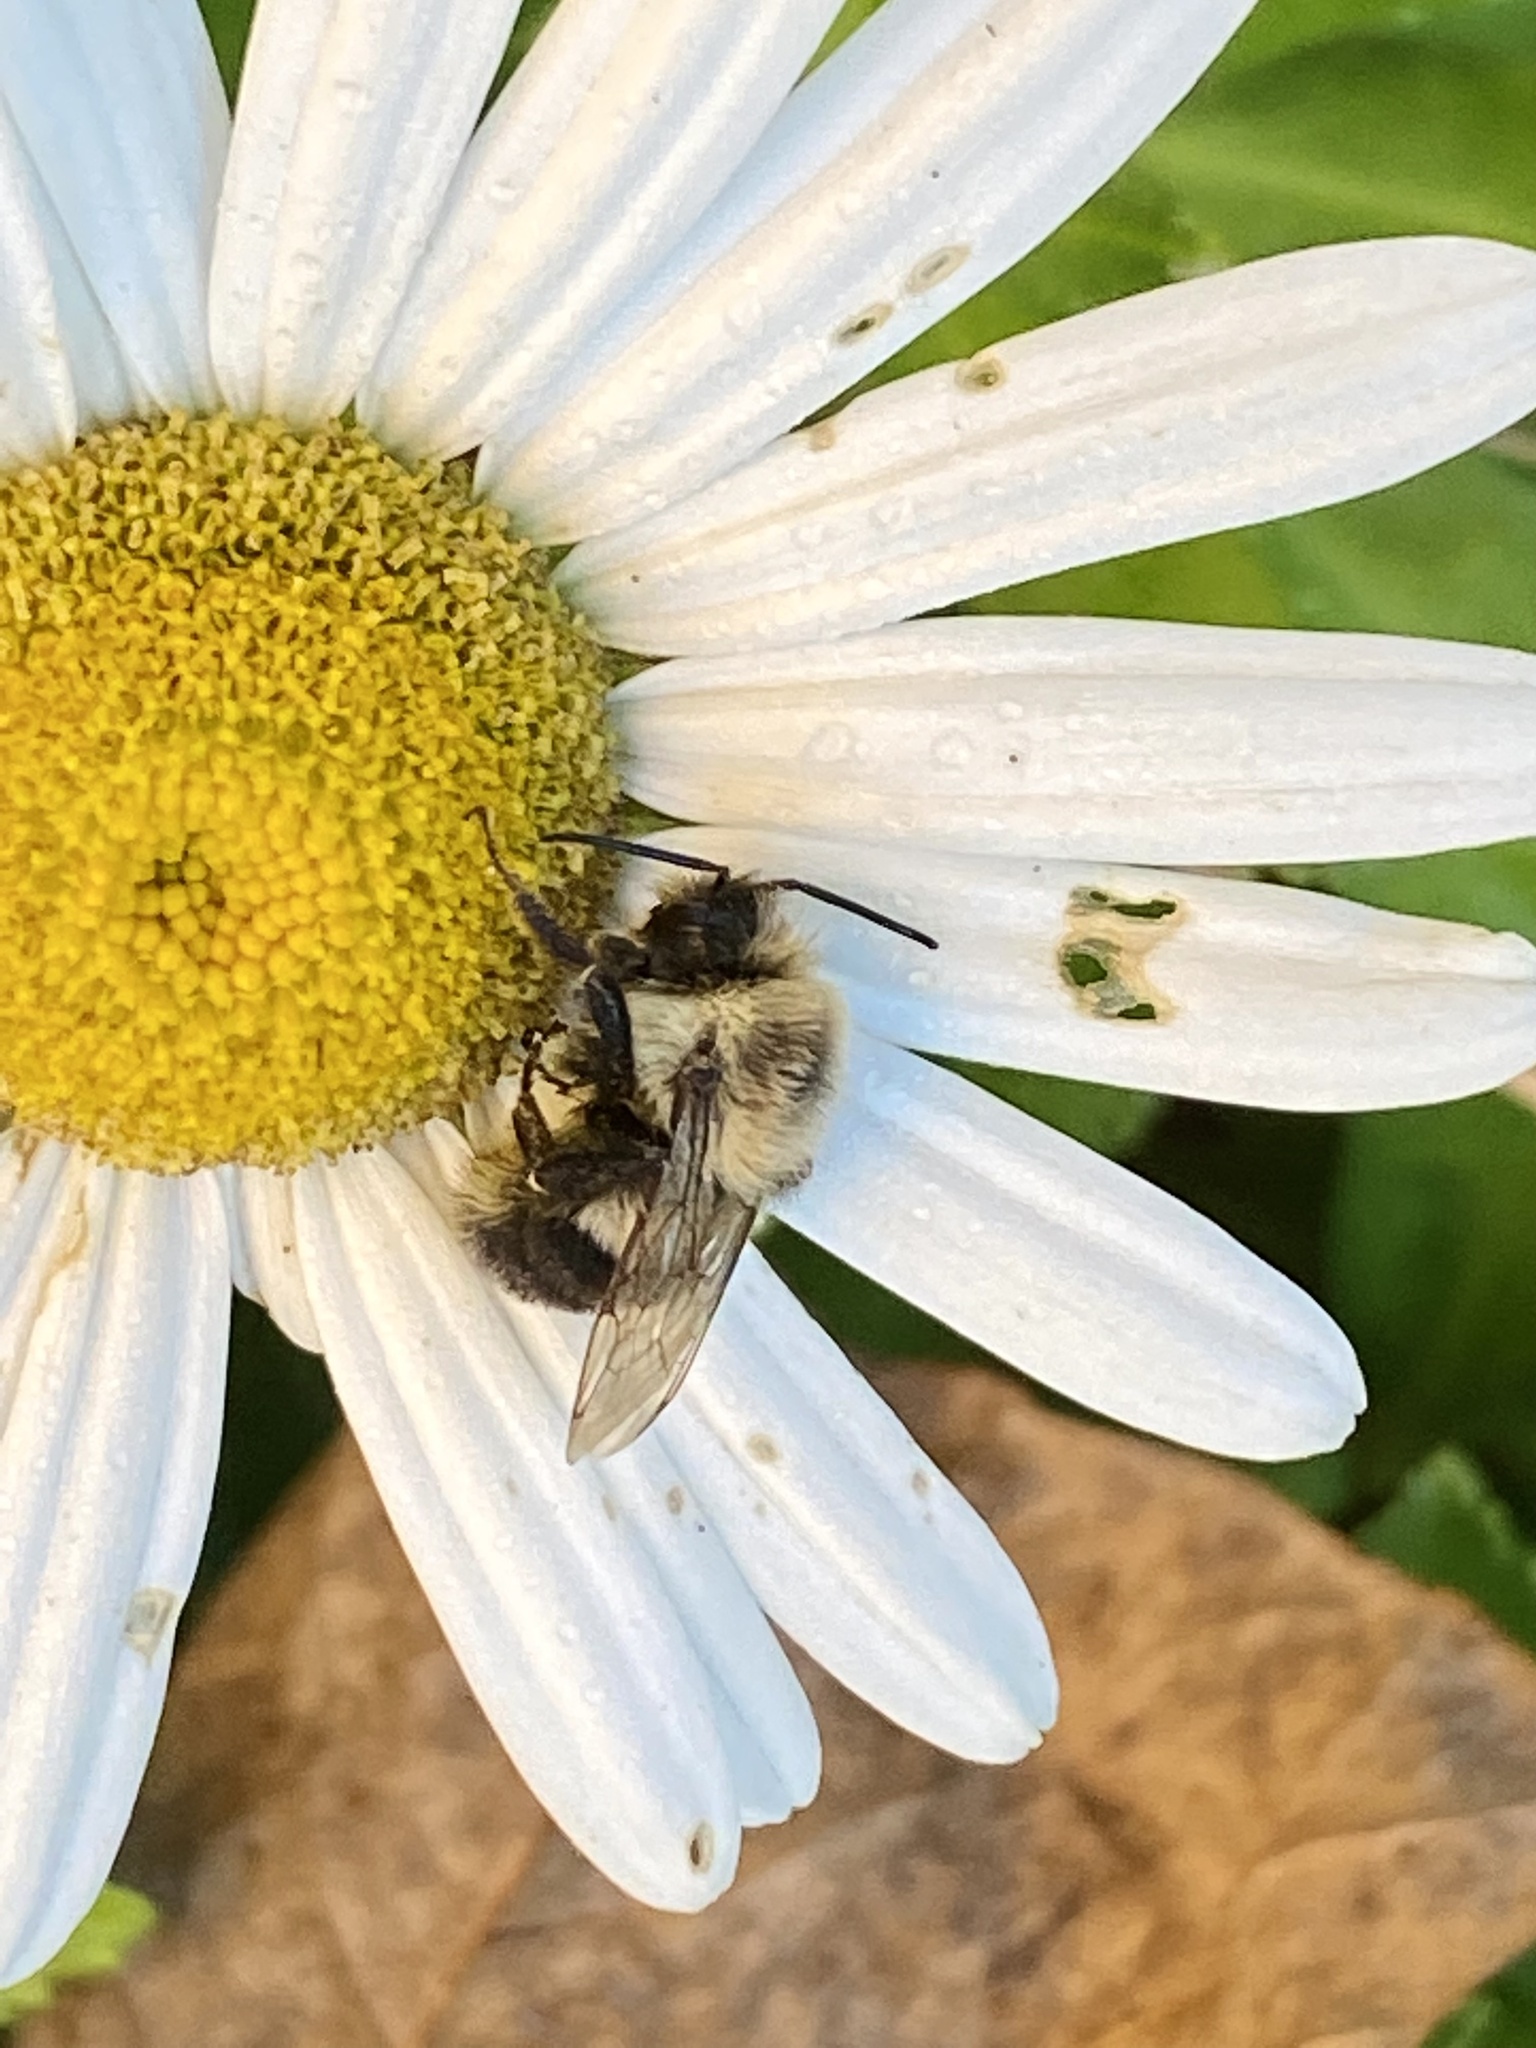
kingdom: Animalia
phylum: Arthropoda
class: Insecta
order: Hymenoptera
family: Apidae
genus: Bombus
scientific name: Bombus impatiens
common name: Common eastern bumble bee
